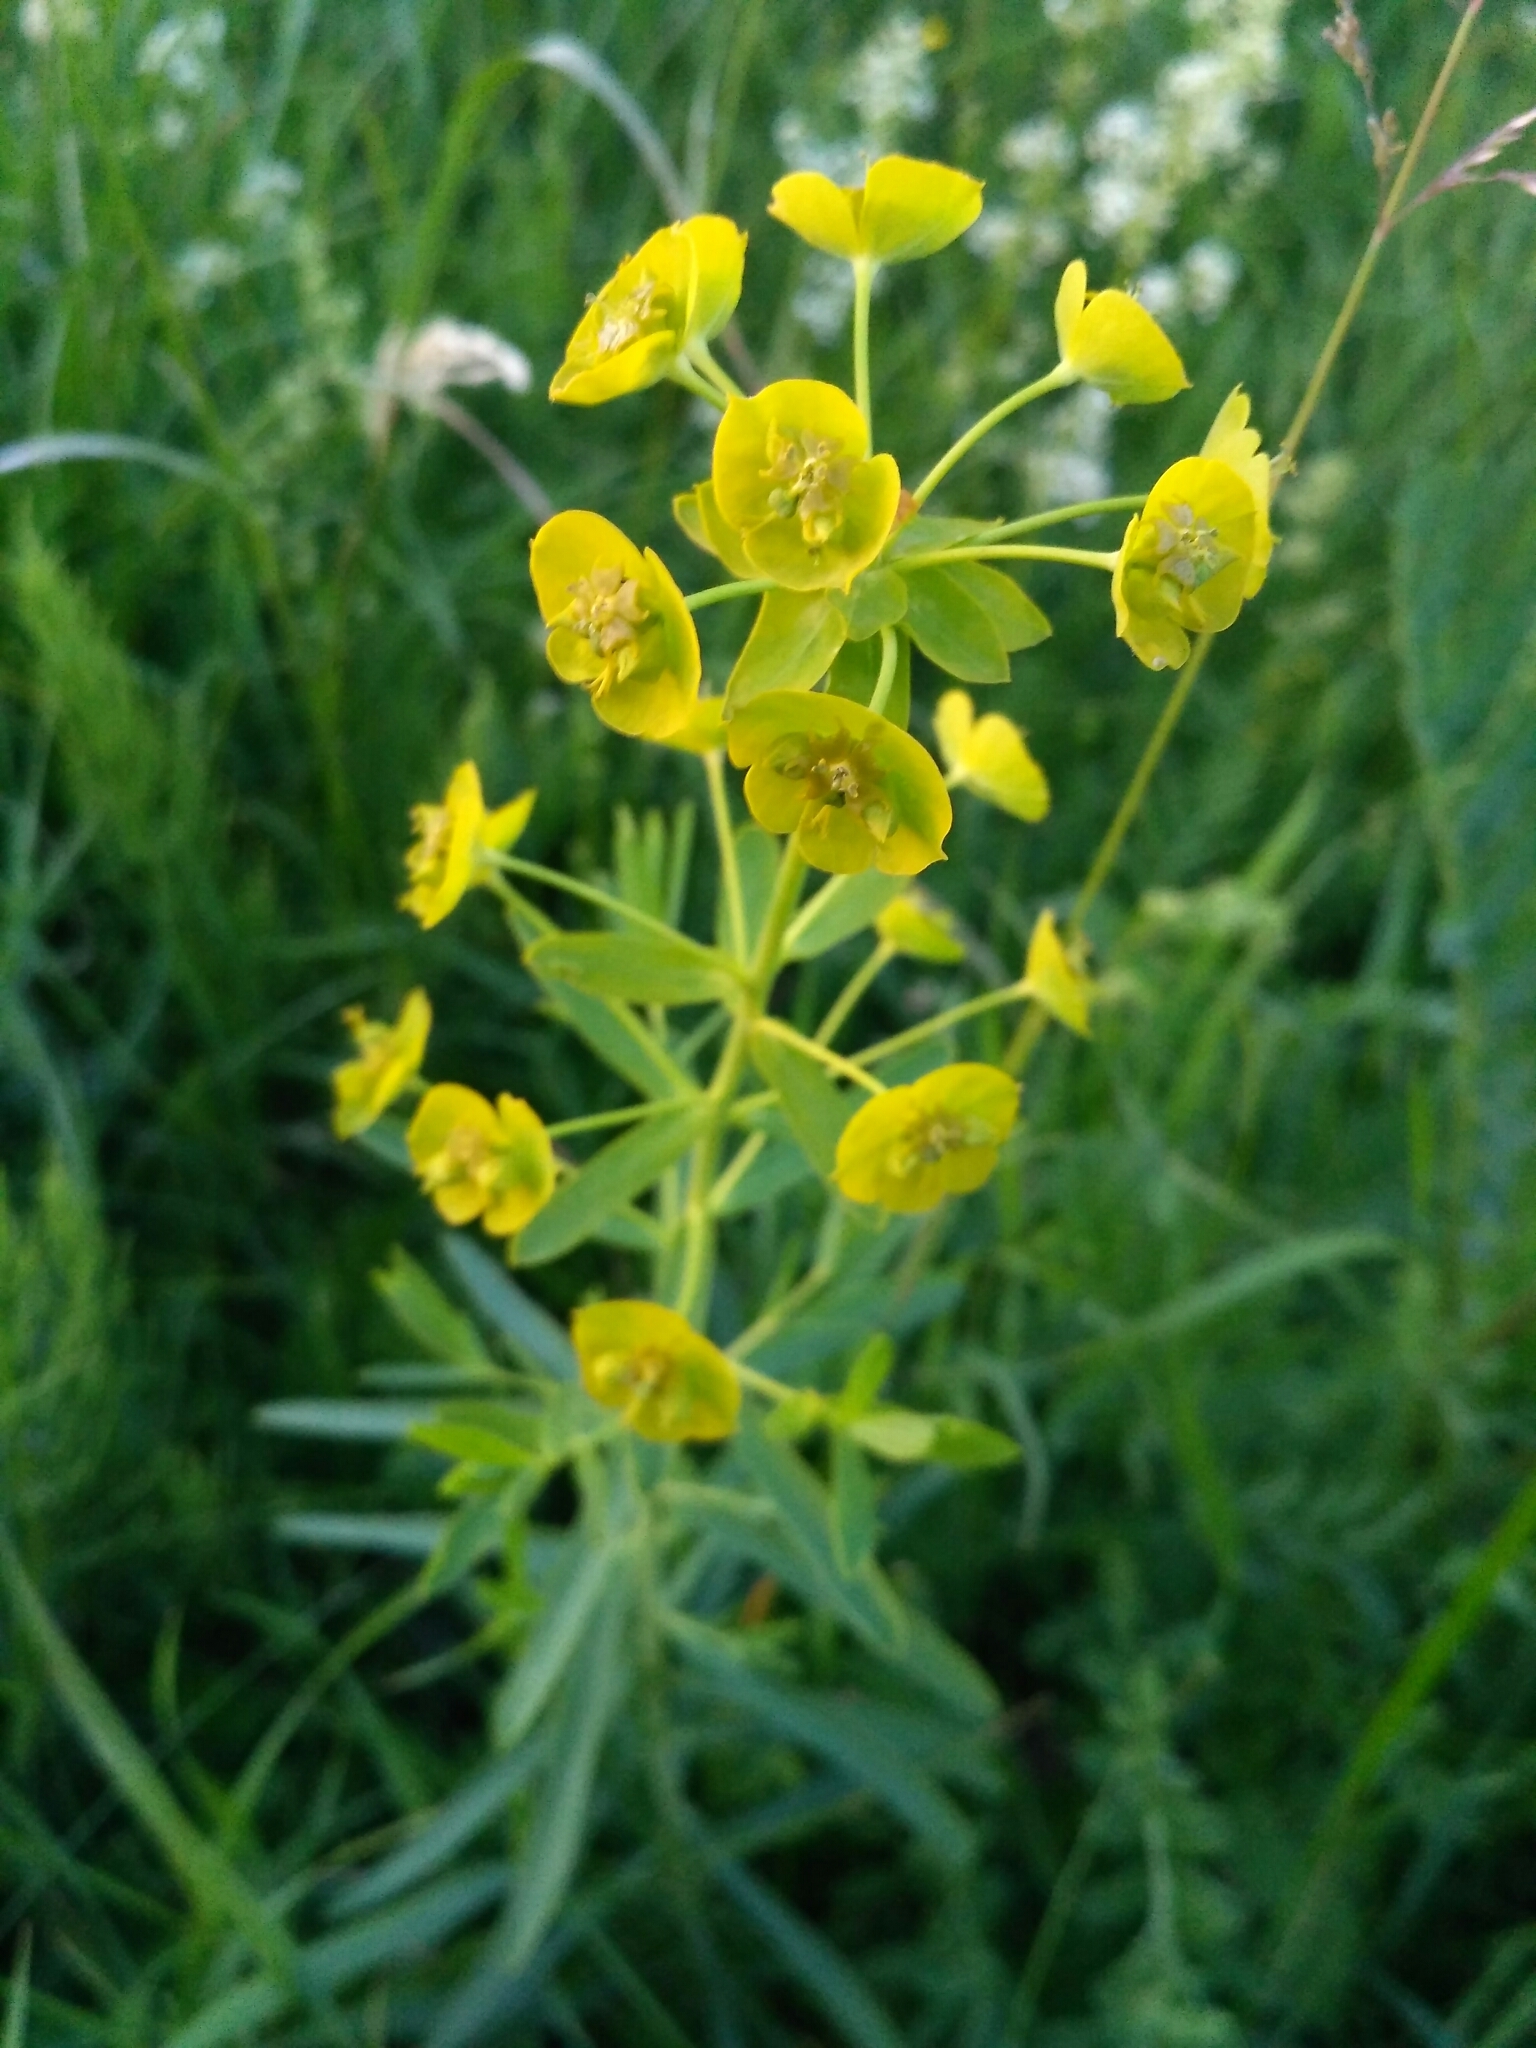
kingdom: Plantae
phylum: Tracheophyta
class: Magnoliopsida
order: Malpighiales
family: Euphorbiaceae
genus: Euphorbia
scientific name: Euphorbia virgata
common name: Leafy spurge
